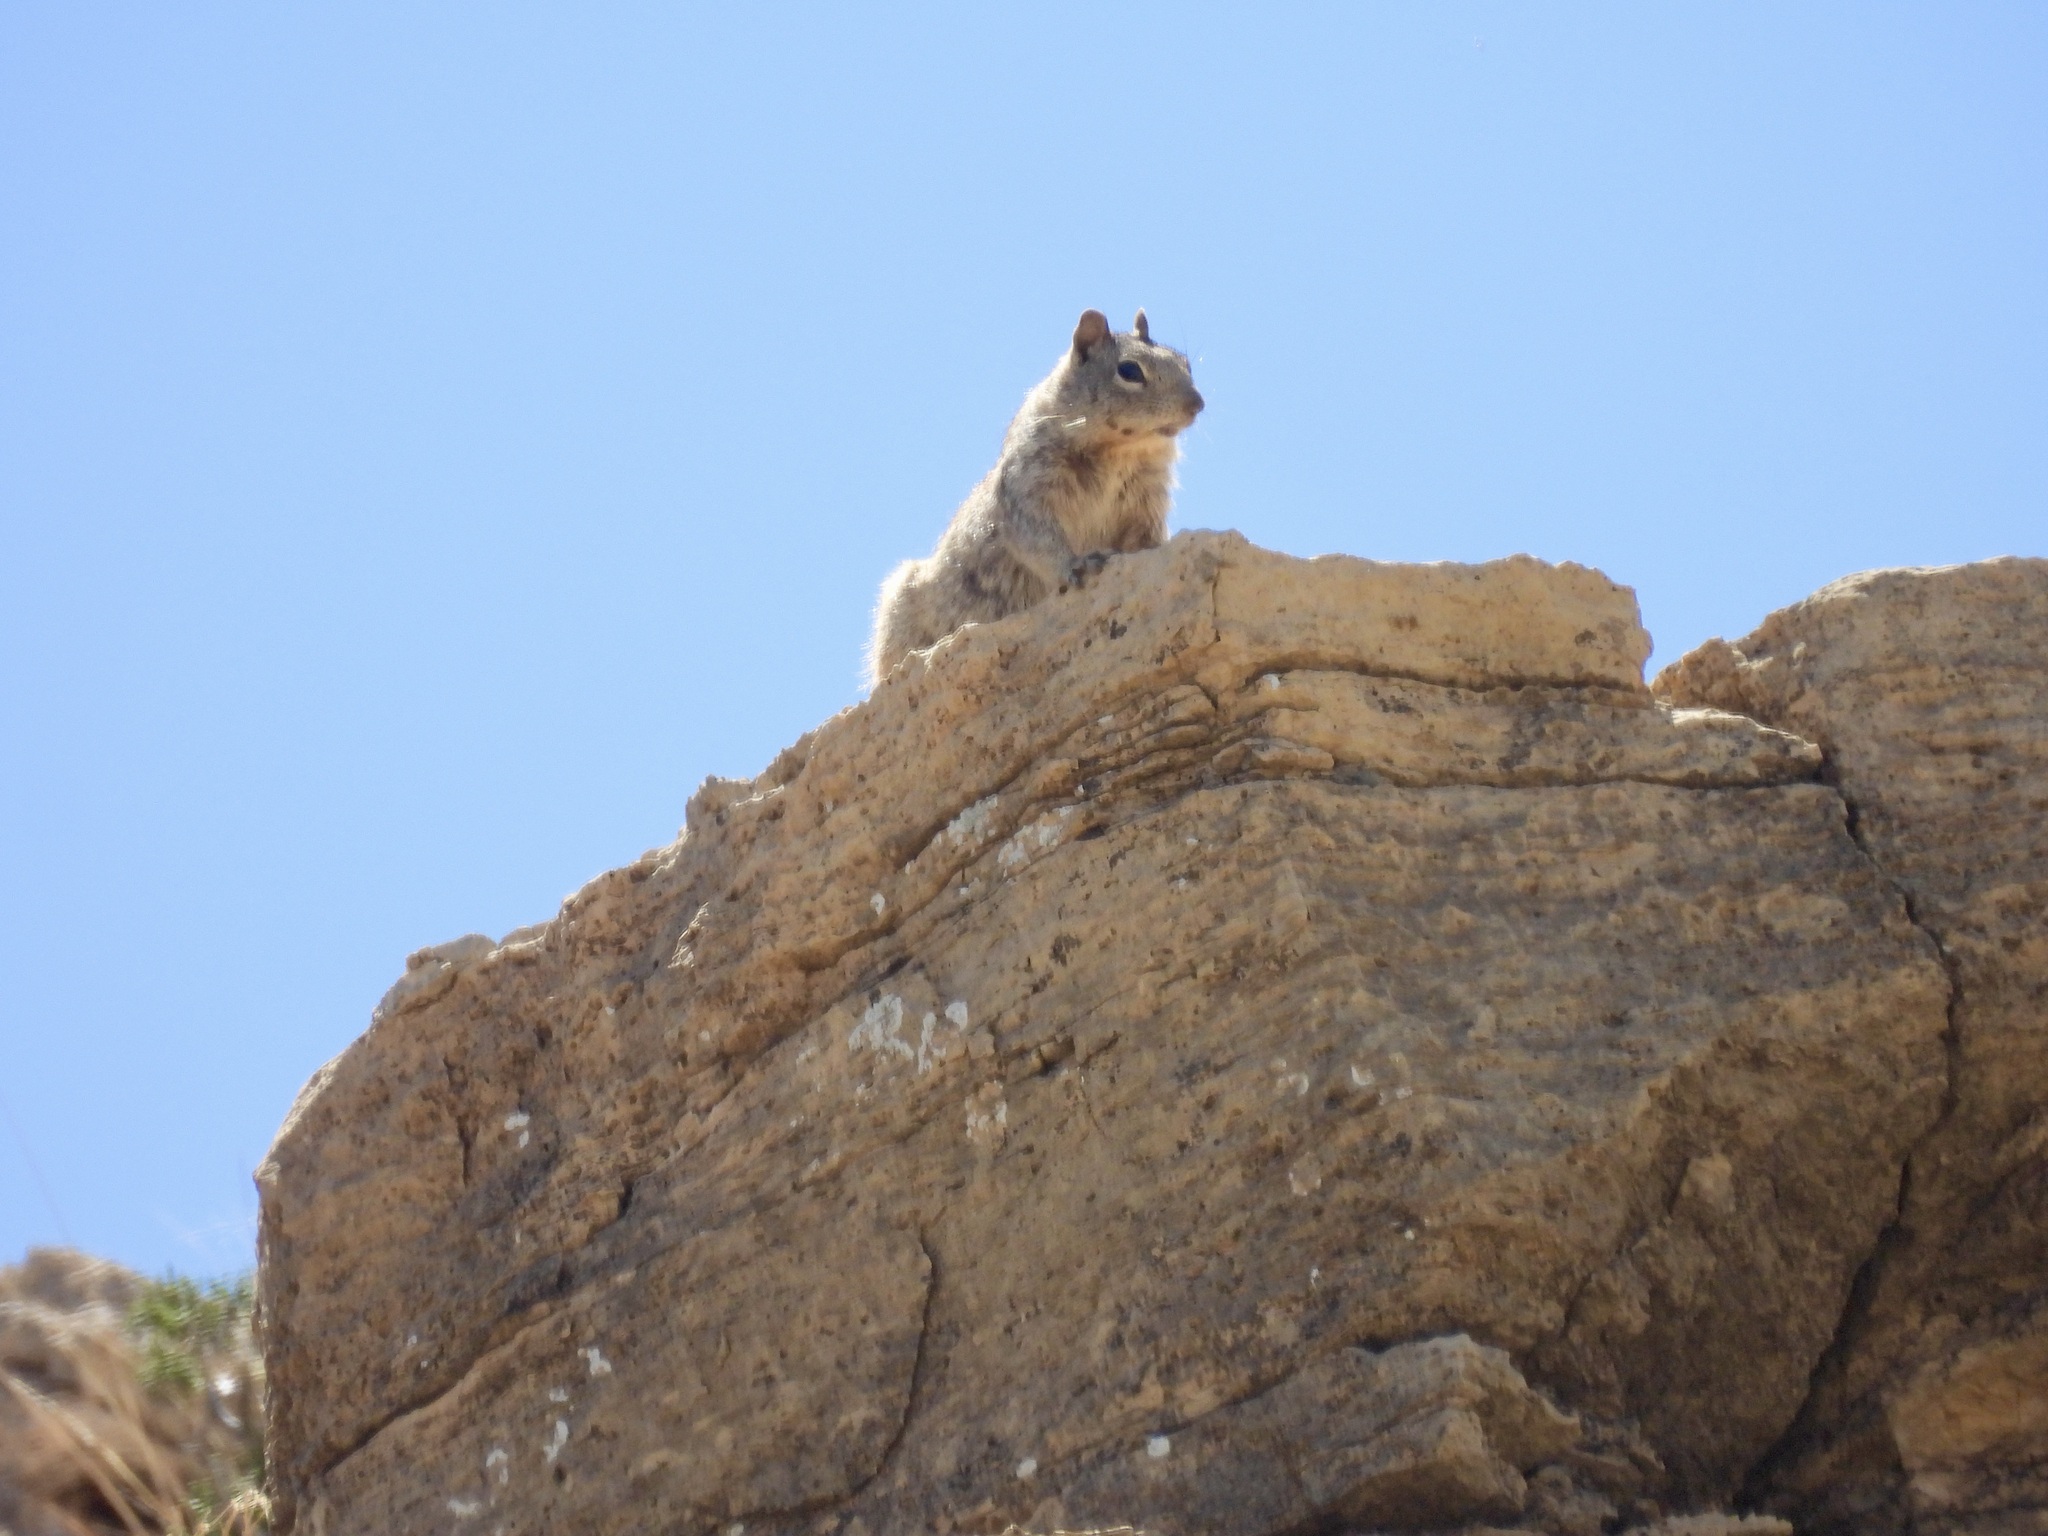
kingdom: Animalia
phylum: Chordata
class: Mammalia
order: Rodentia
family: Sciuridae
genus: Otospermophilus
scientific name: Otospermophilus variegatus
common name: Rock squirrel
